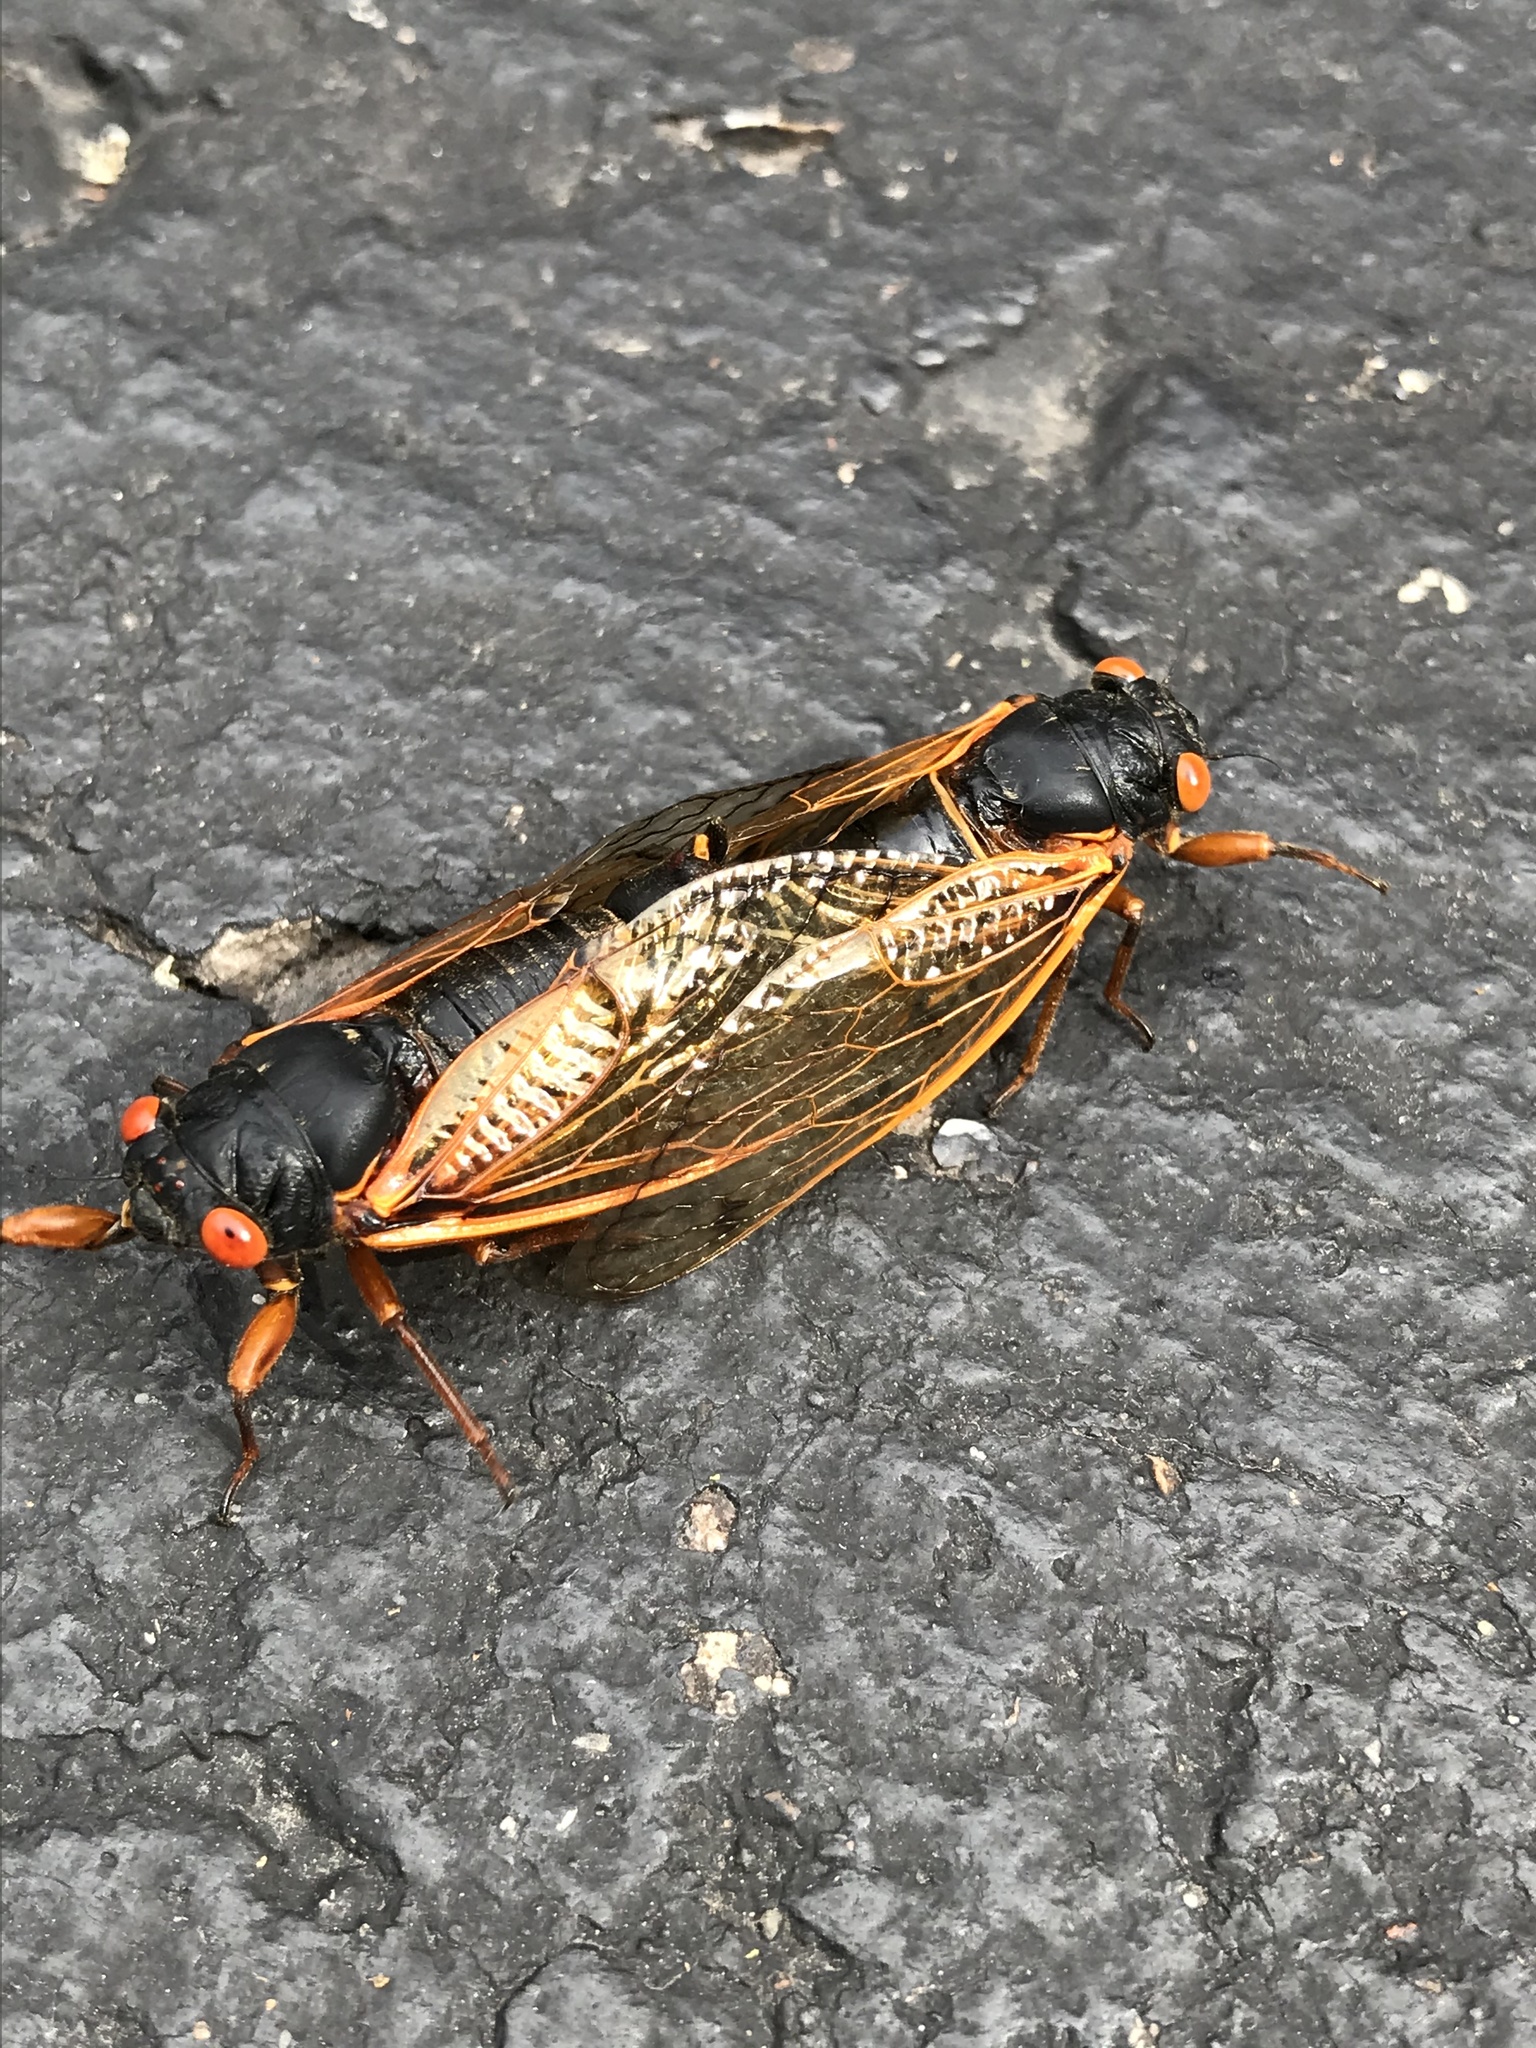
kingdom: Animalia
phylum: Arthropoda
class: Insecta
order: Hemiptera
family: Cicadidae
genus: Magicicada
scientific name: Magicicada cassini
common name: Cassin's 17-year cicada
